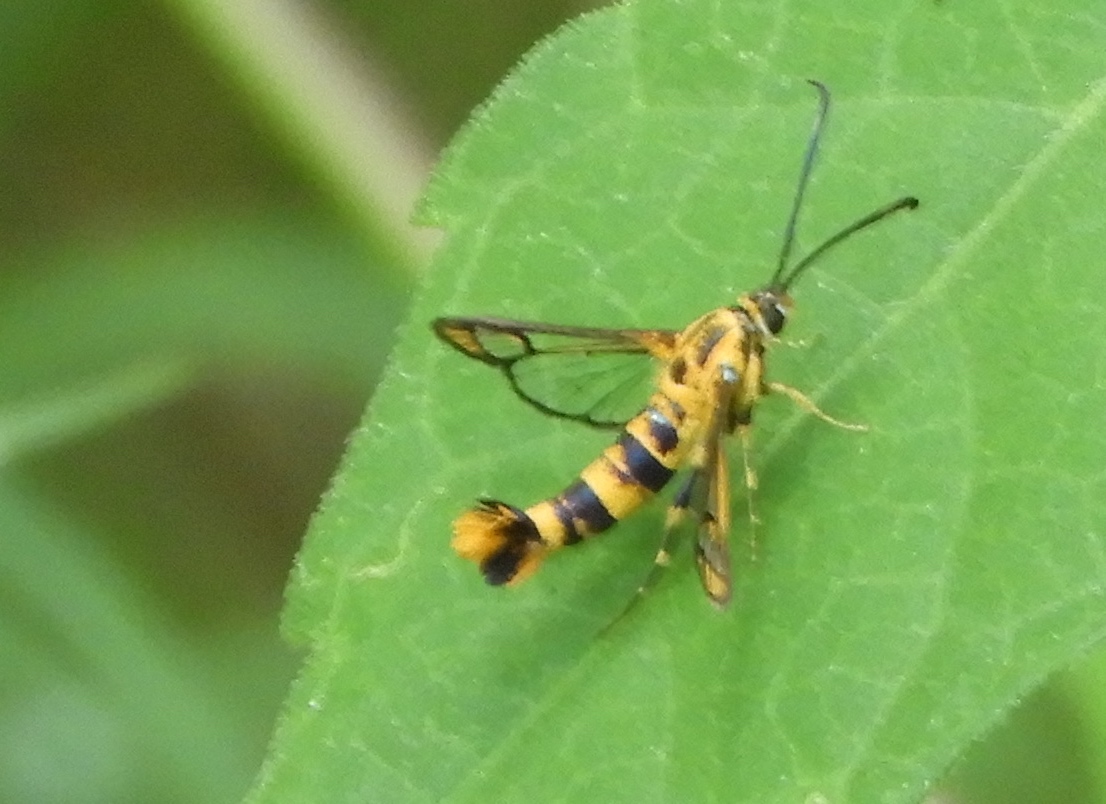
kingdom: Animalia
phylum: Arthropoda
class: Insecta
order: Lepidoptera
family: Sesiidae
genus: Carmenta
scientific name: Carmenta
